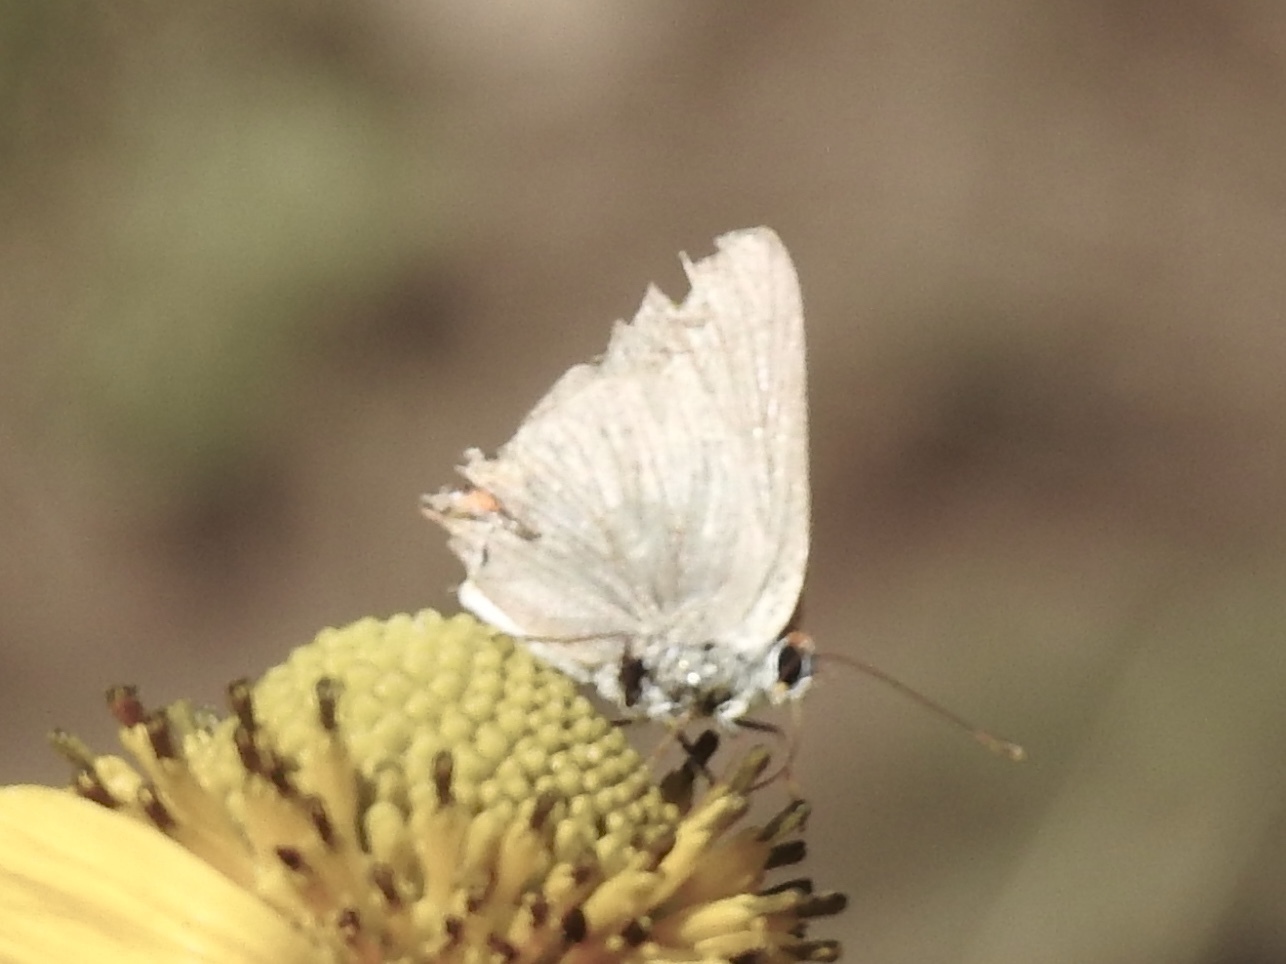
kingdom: Animalia
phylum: Arthropoda
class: Insecta
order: Lepidoptera
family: Lycaenidae
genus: Strymon
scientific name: Strymon melinus
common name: Gray hairstreak
